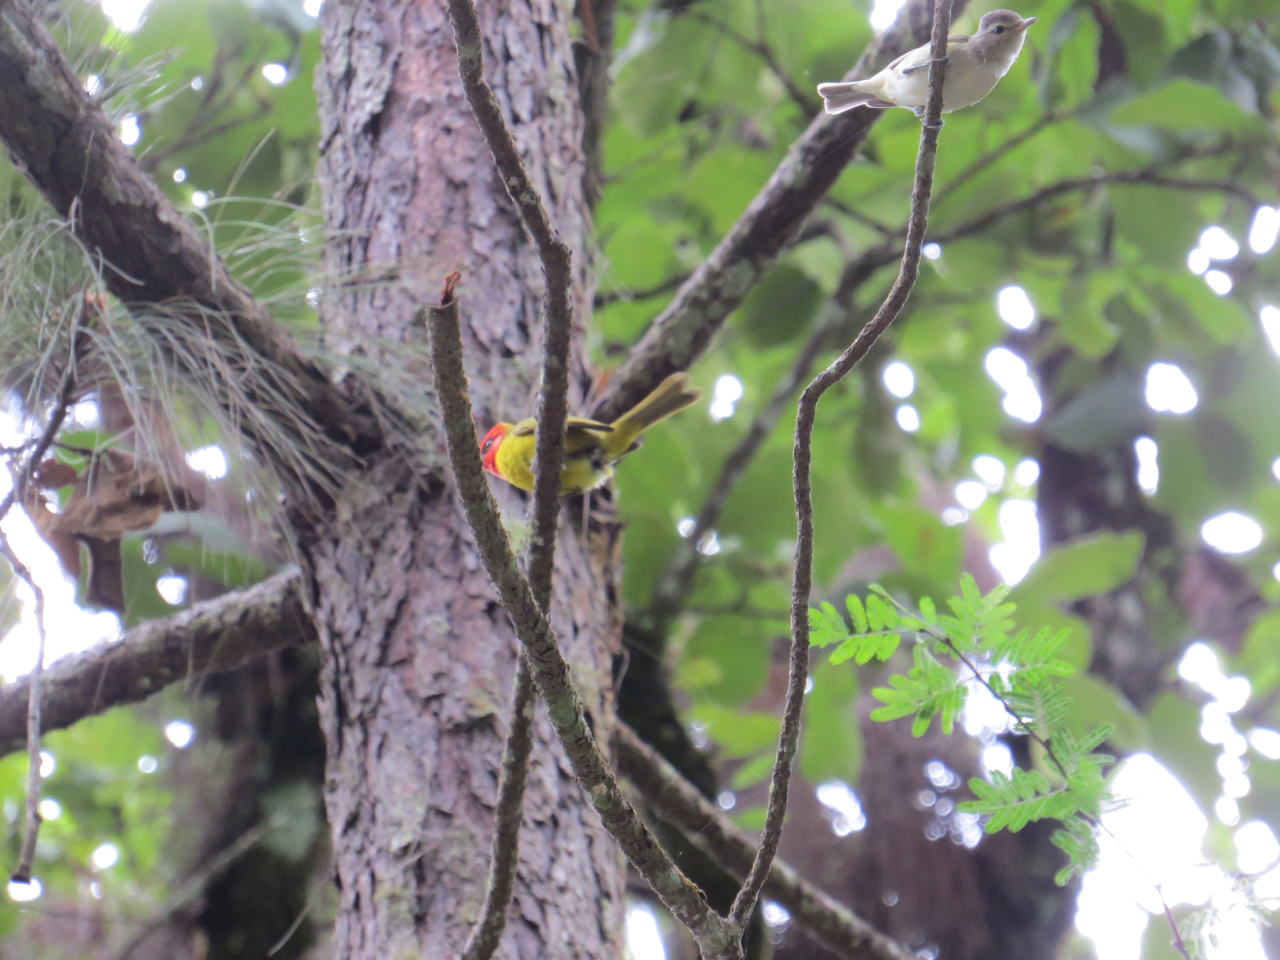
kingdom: Animalia
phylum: Chordata
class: Aves
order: Passeriformes
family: Vireonidae
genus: Vireo
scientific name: Vireo gilvus
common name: Warbling vireo
